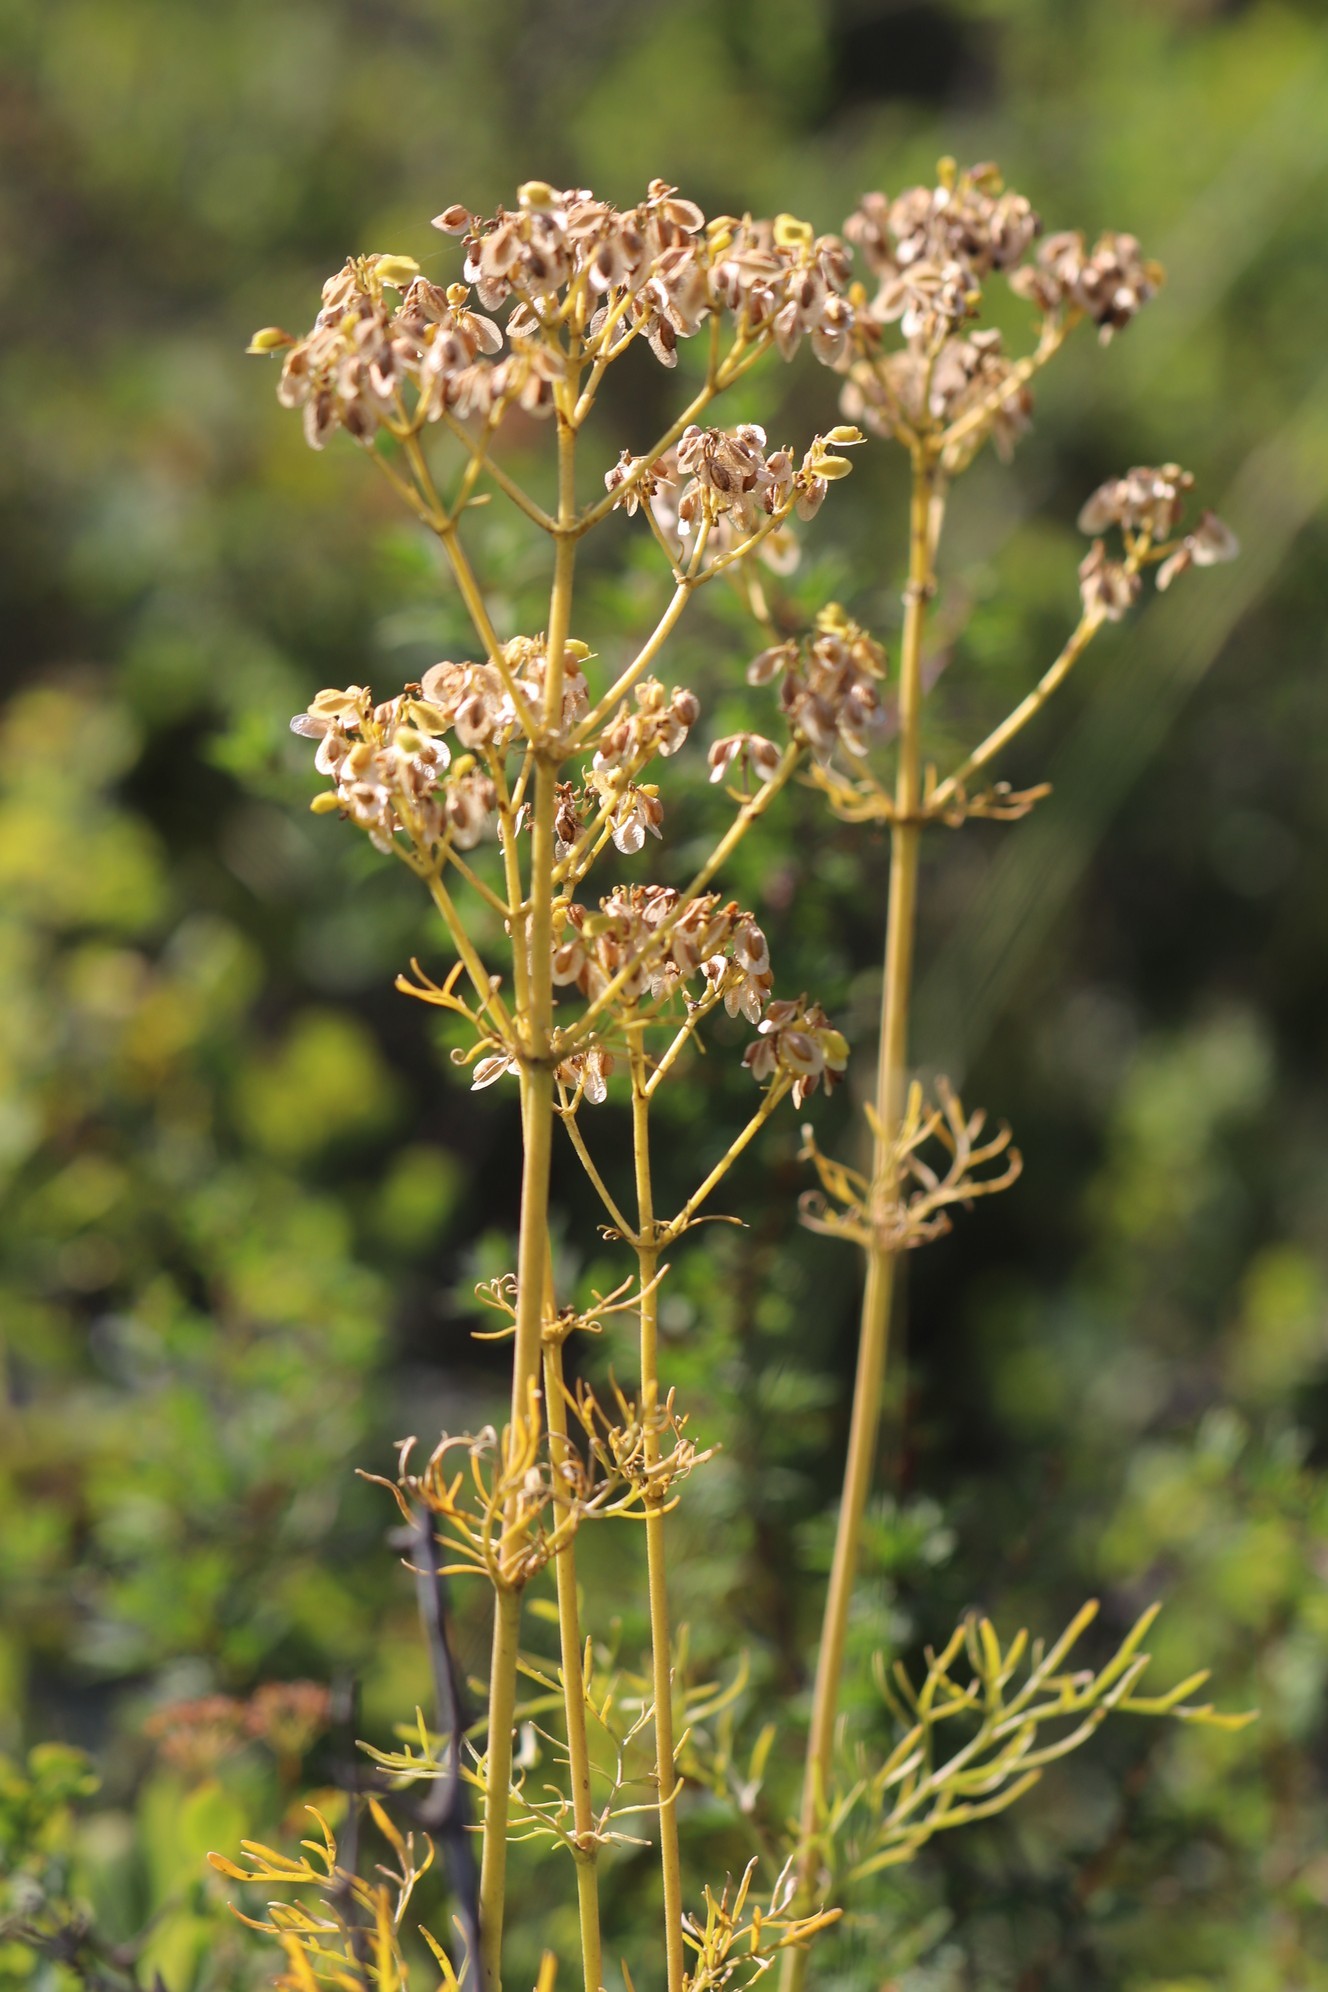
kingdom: Plantae
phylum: Tracheophyta
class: Magnoliopsida
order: Dipsacales
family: Caprifoliaceae
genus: Patrinia
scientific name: Patrinia intermedia
